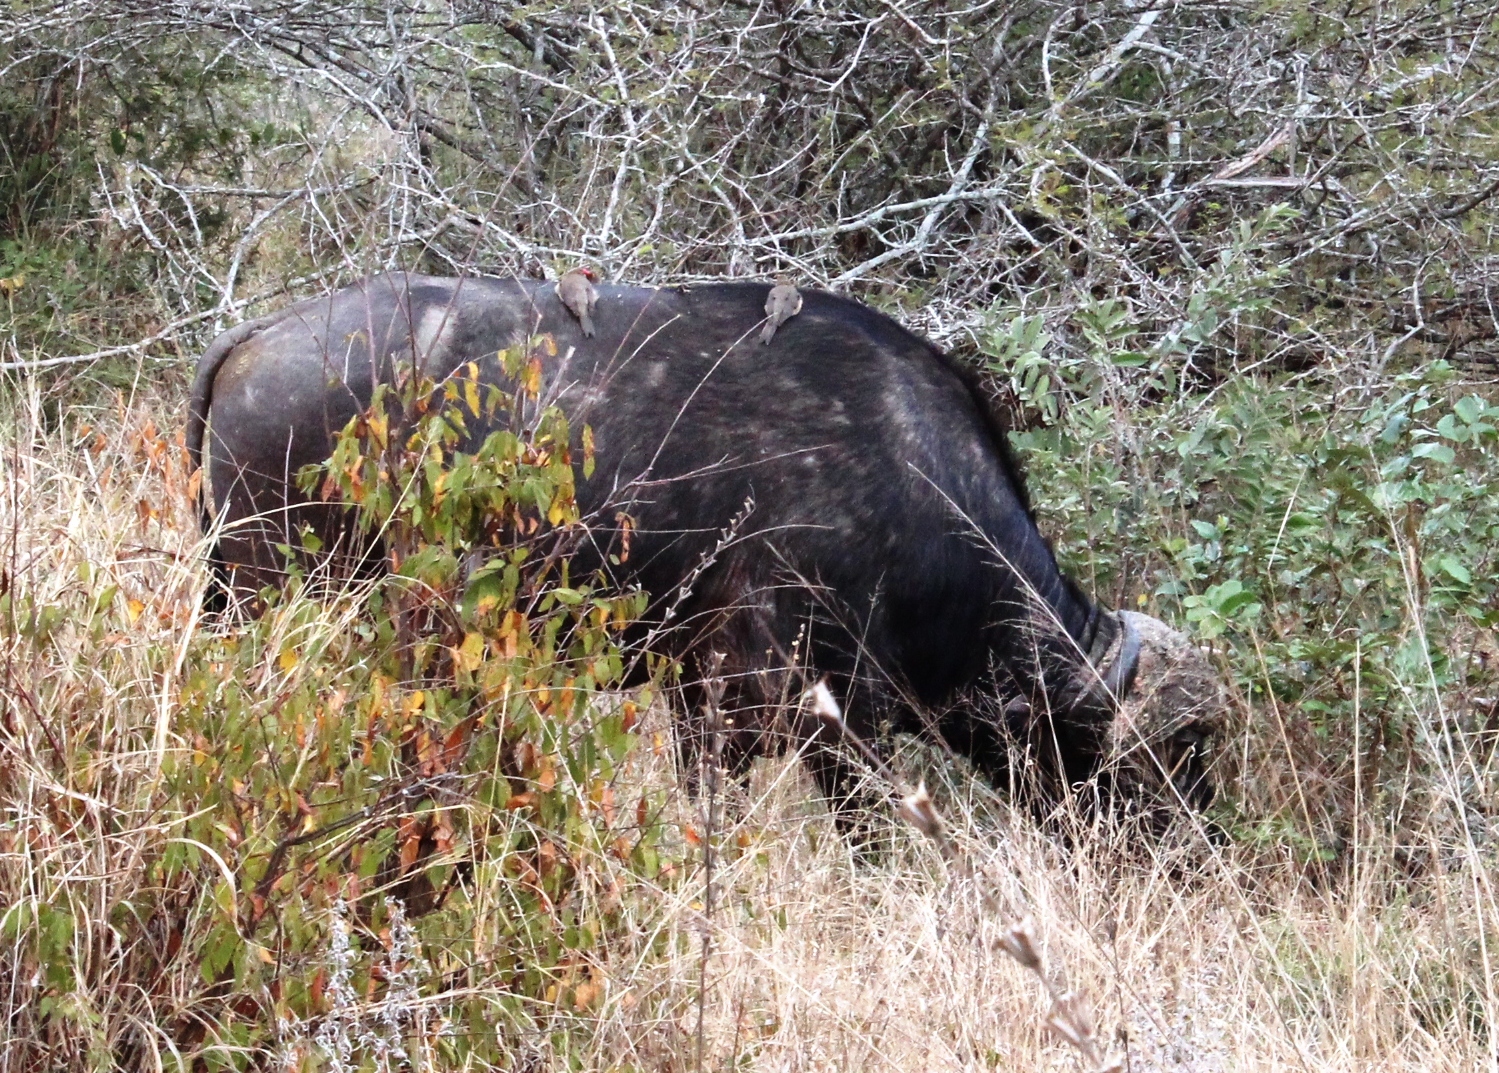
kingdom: Animalia
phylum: Chordata
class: Mammalia
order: Artiodactyla
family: Bovidae
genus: Syncerus
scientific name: Syncerus caffer
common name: African buffalo
